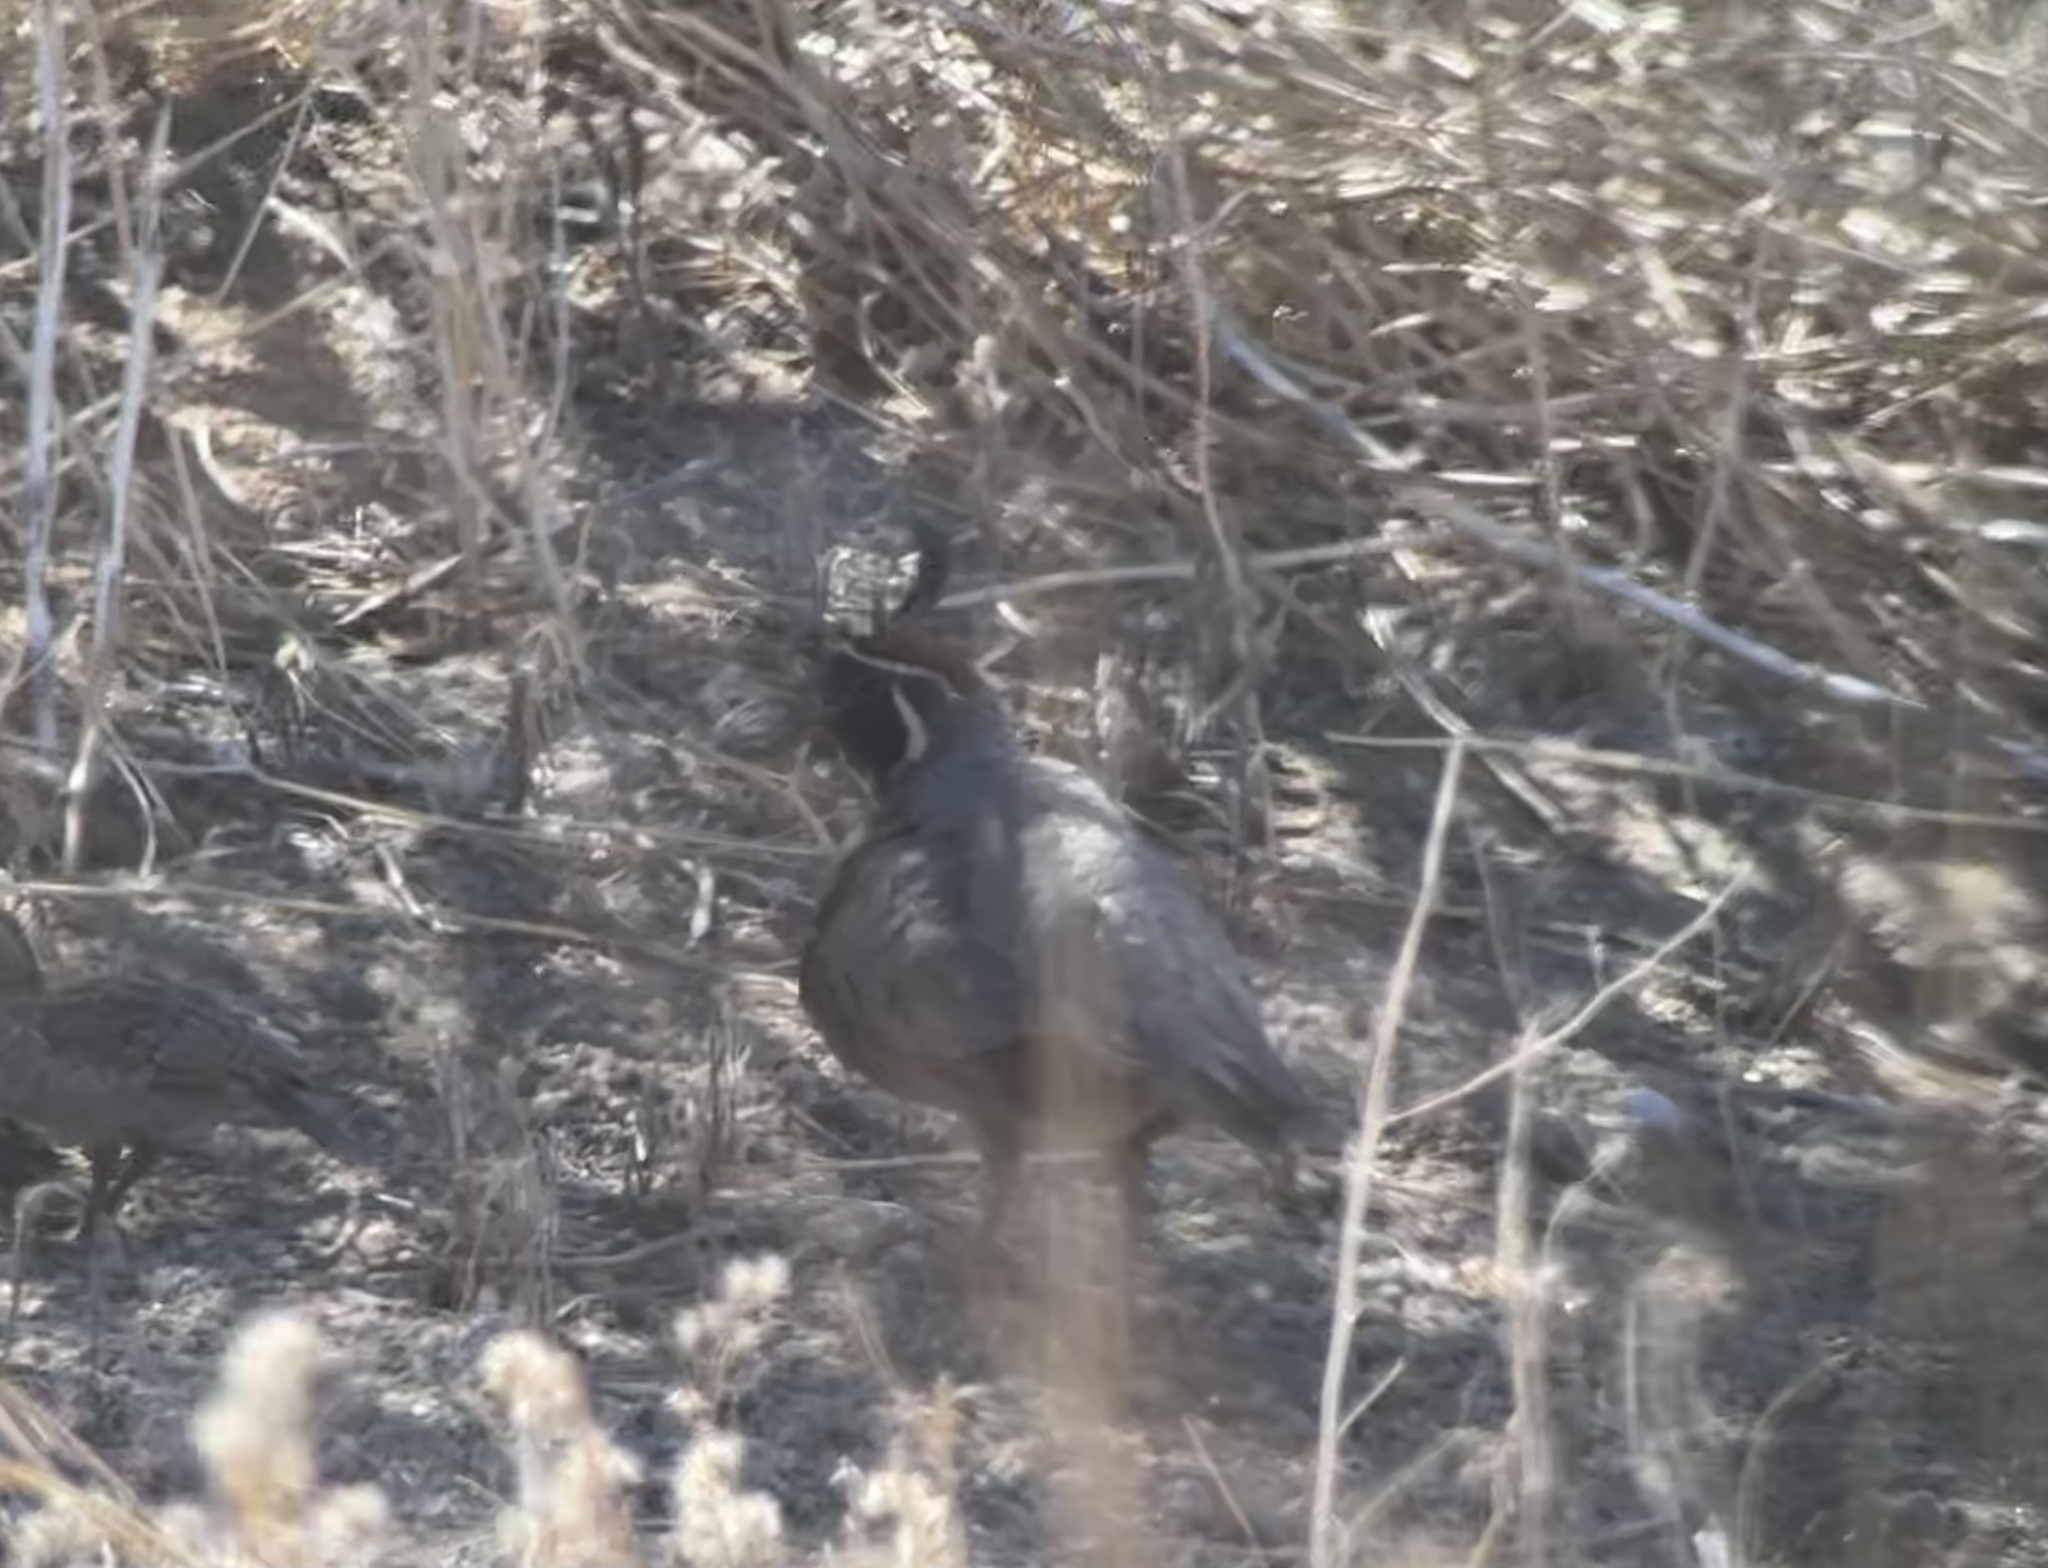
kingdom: Animalia
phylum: Chordata
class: Aves
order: Galliformes
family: Odontophoridae
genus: Callipepla
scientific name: Callipepla gambelii
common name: Gambel's quail
